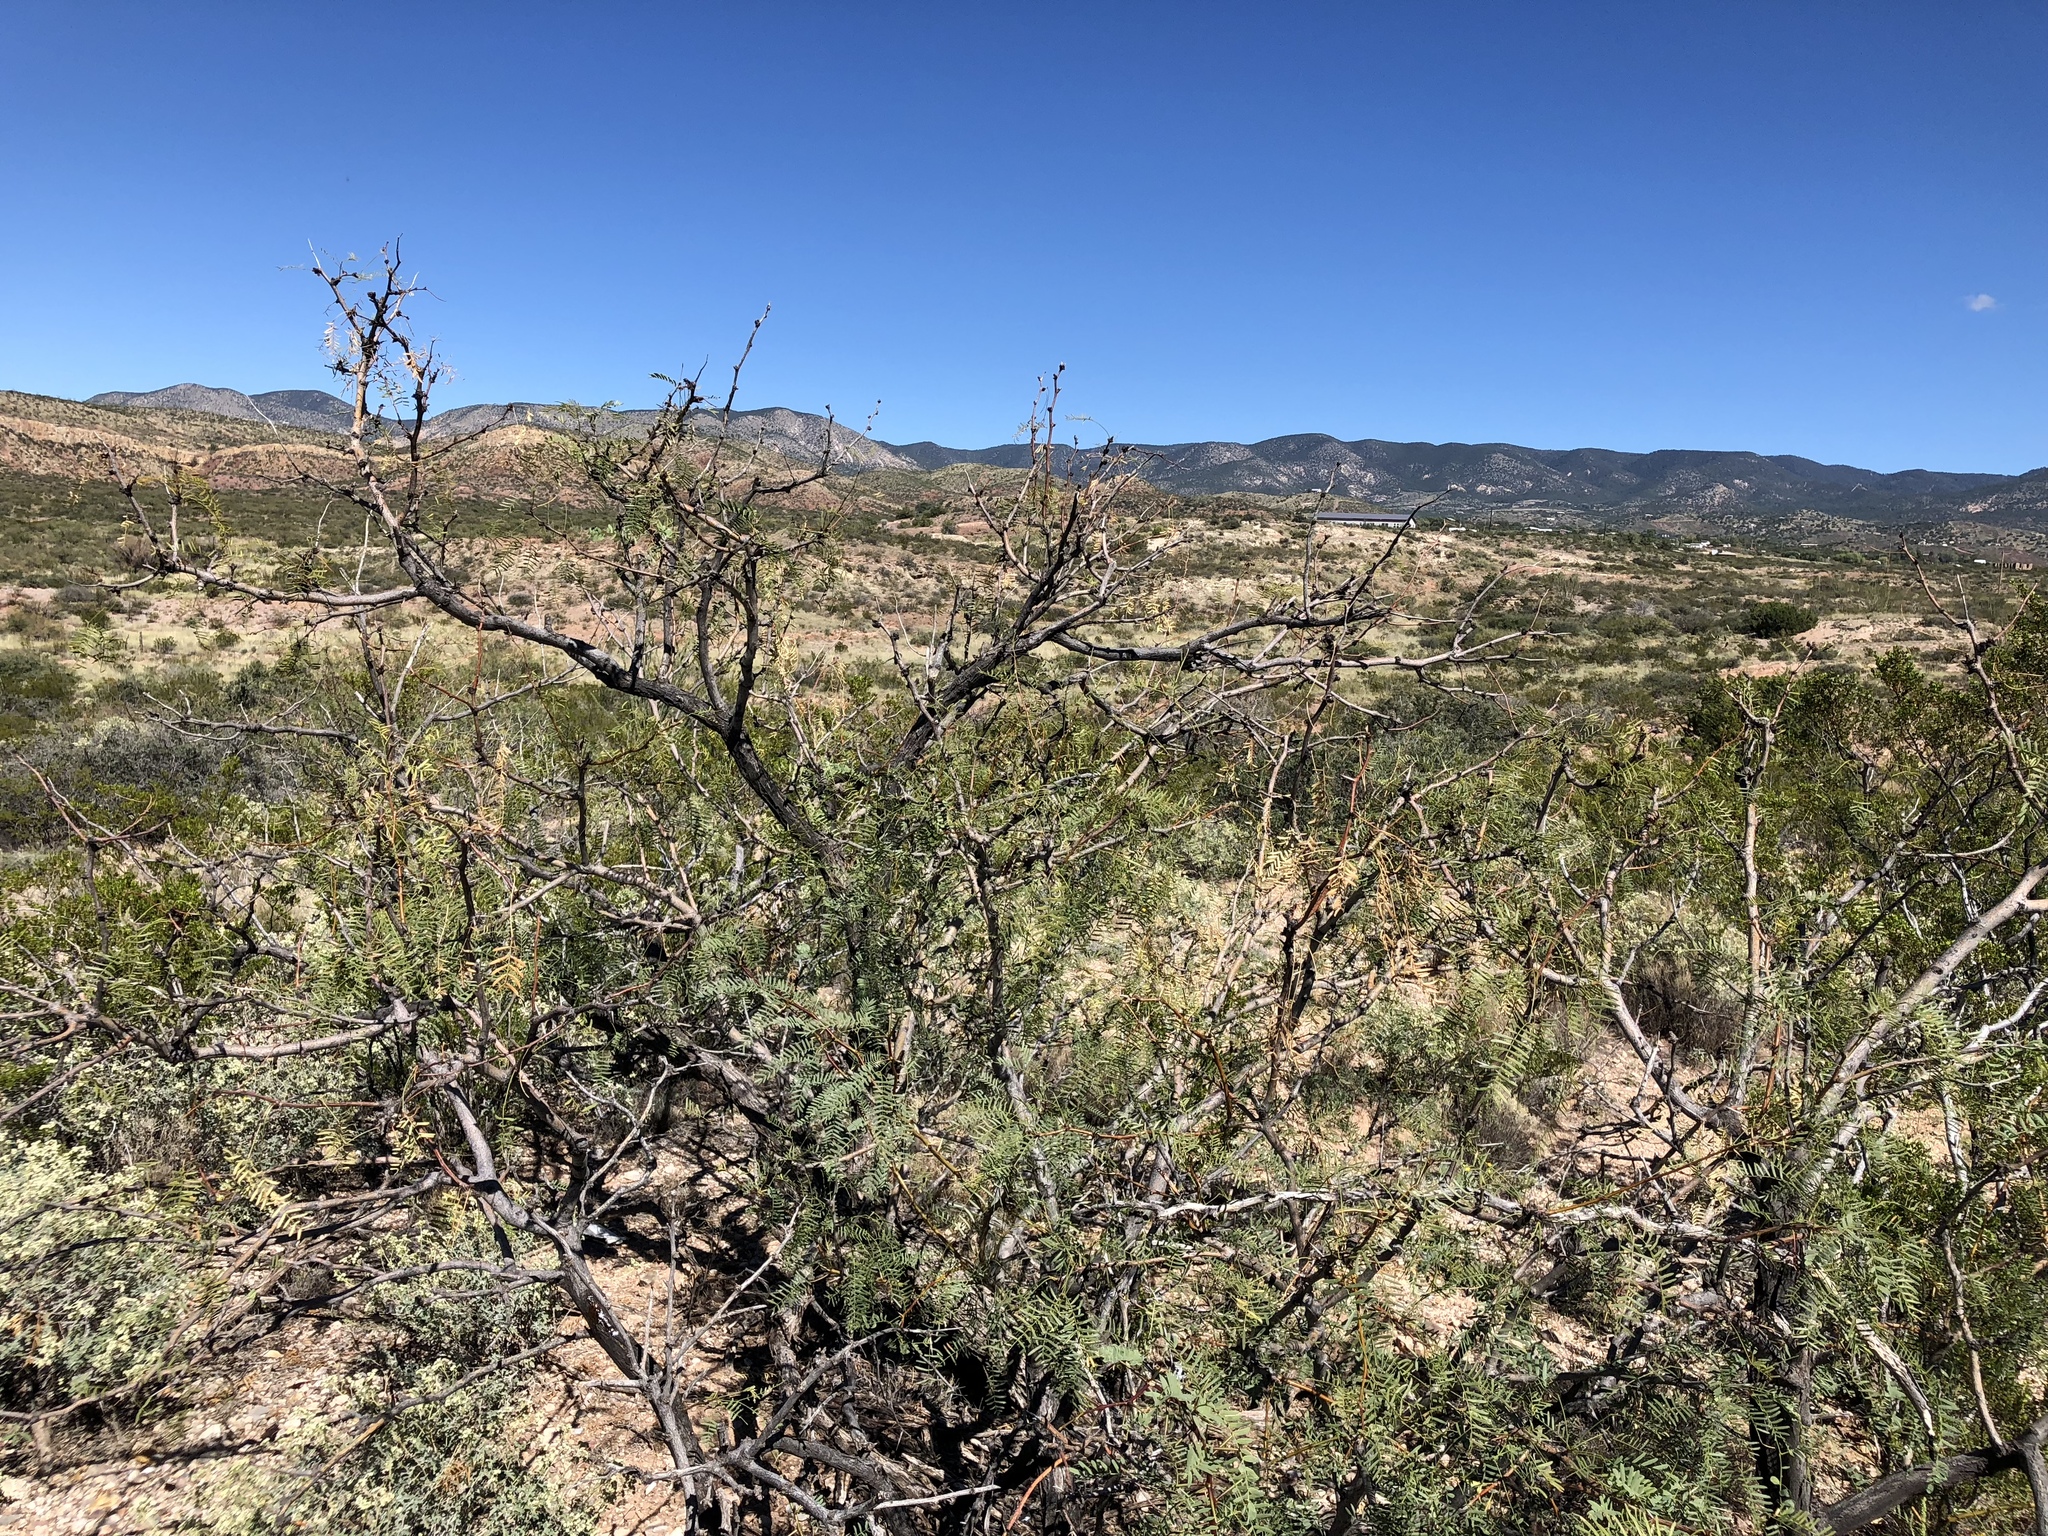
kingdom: Plantae
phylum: Tracheophyta
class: Magnoliopsida
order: Fabales
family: Fabaceae
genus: Prosopis
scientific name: Prosopis glandulosa
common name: Honey mesquite
